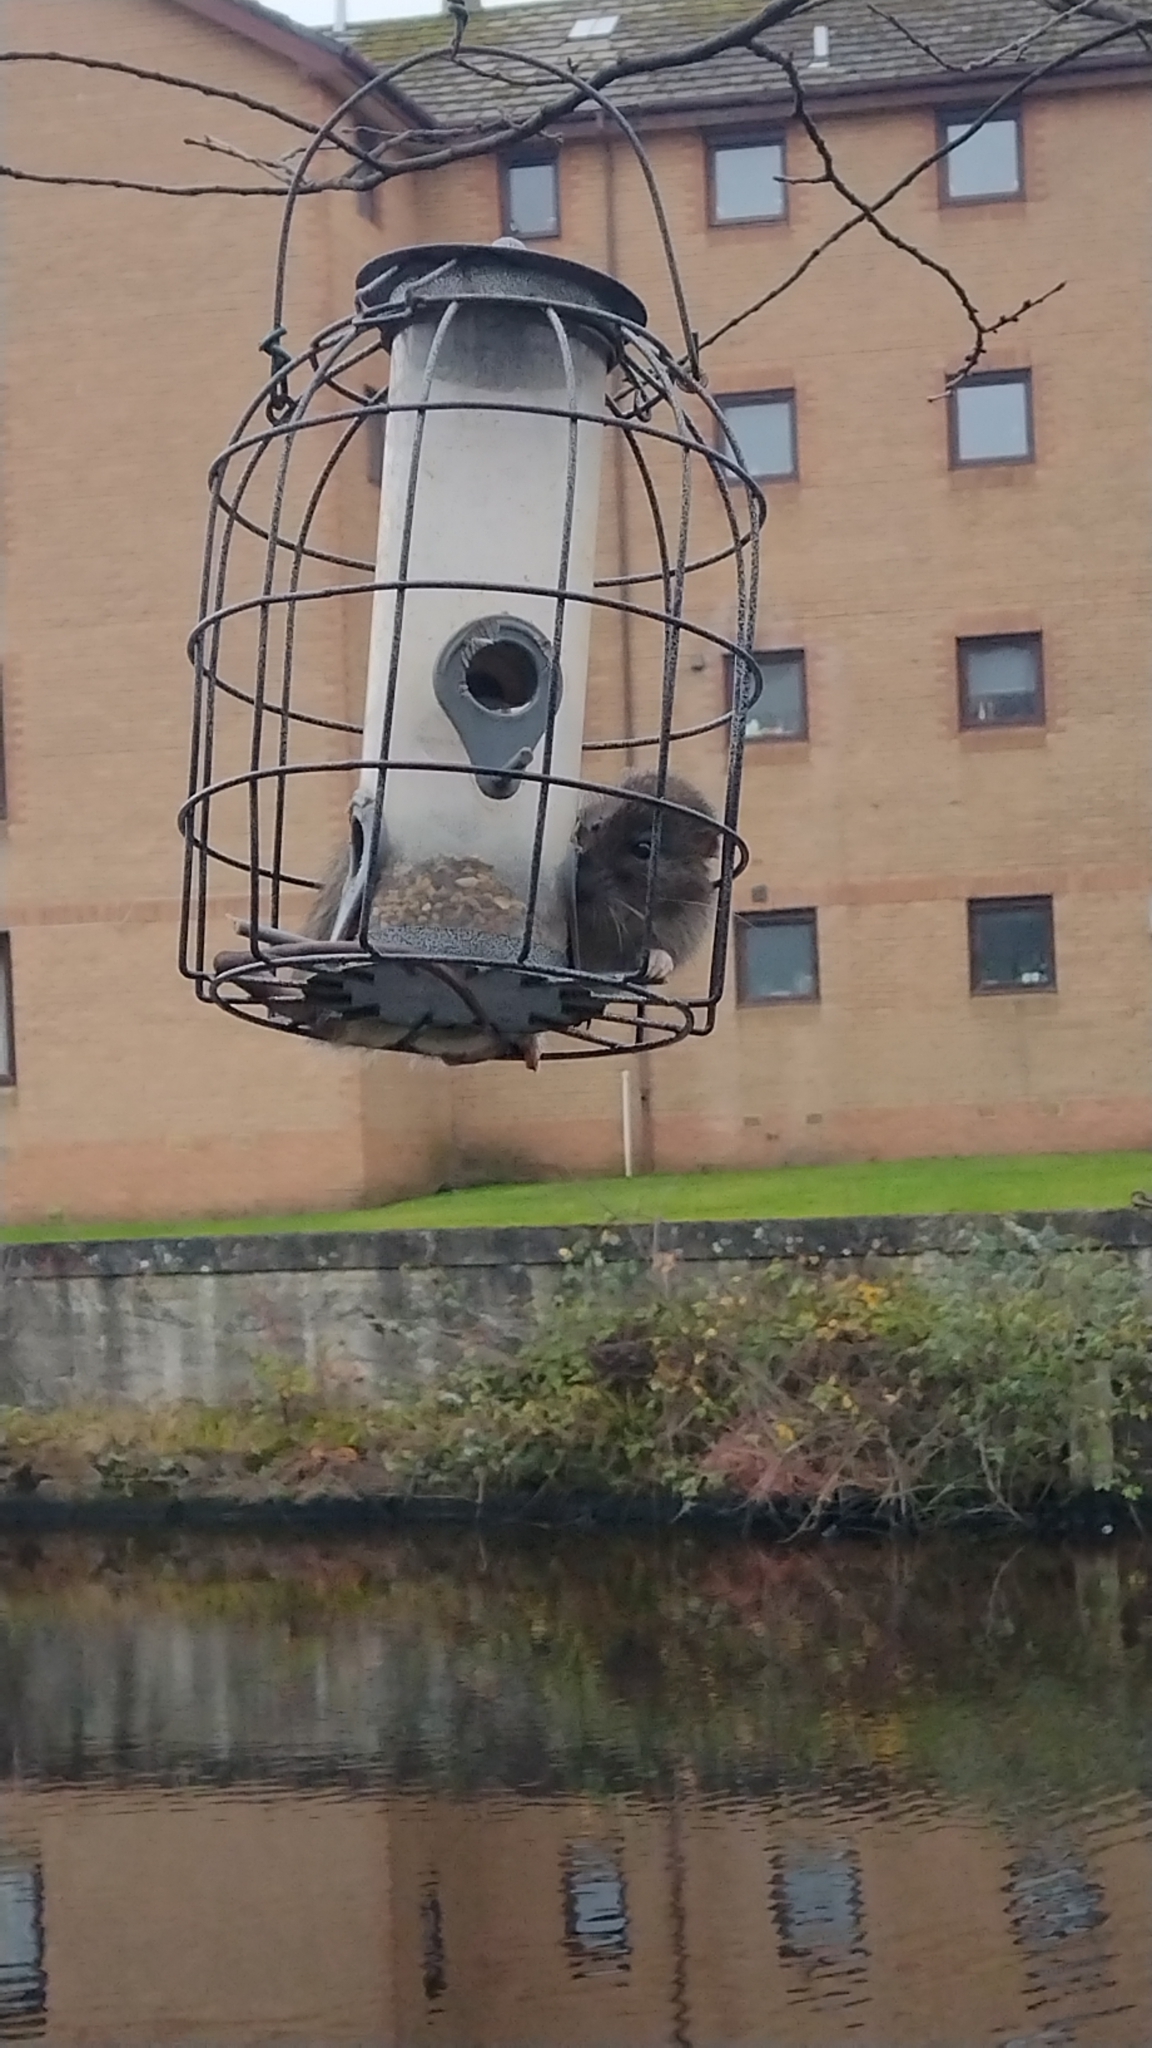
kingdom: Animalia
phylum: Chordata
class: Mammalia
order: Rodentia
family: Muridae
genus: Rattus
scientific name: Rattus norvegicus
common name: Brown rat
